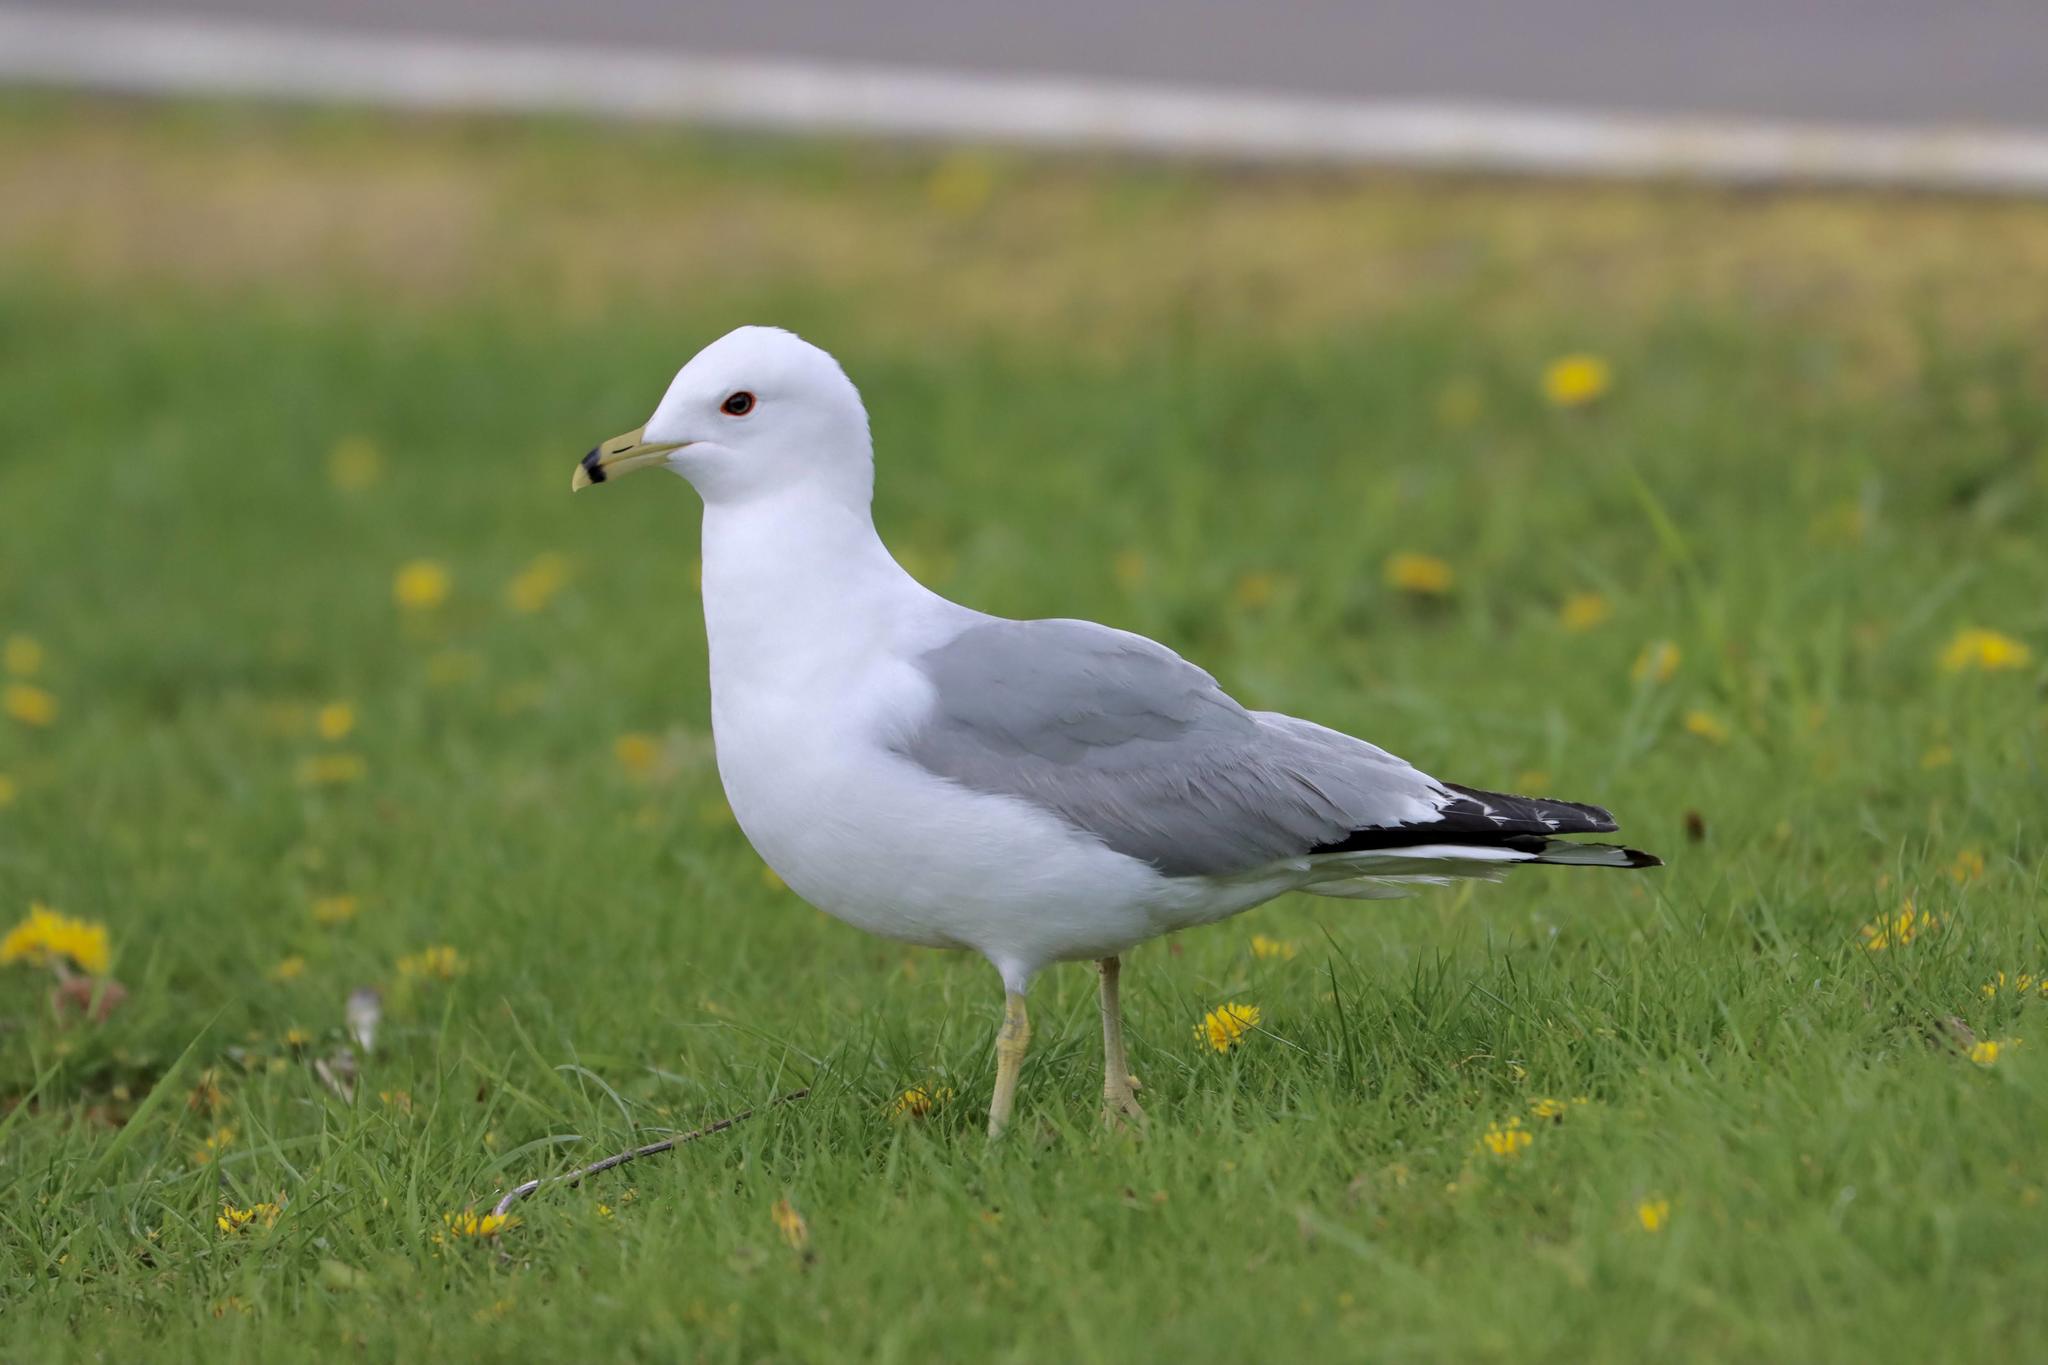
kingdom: Animalia
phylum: Chordata
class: Aves
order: Charadriiformes
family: Laridae
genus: Larus
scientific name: Larus delawarensis
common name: Ring-billed gull
